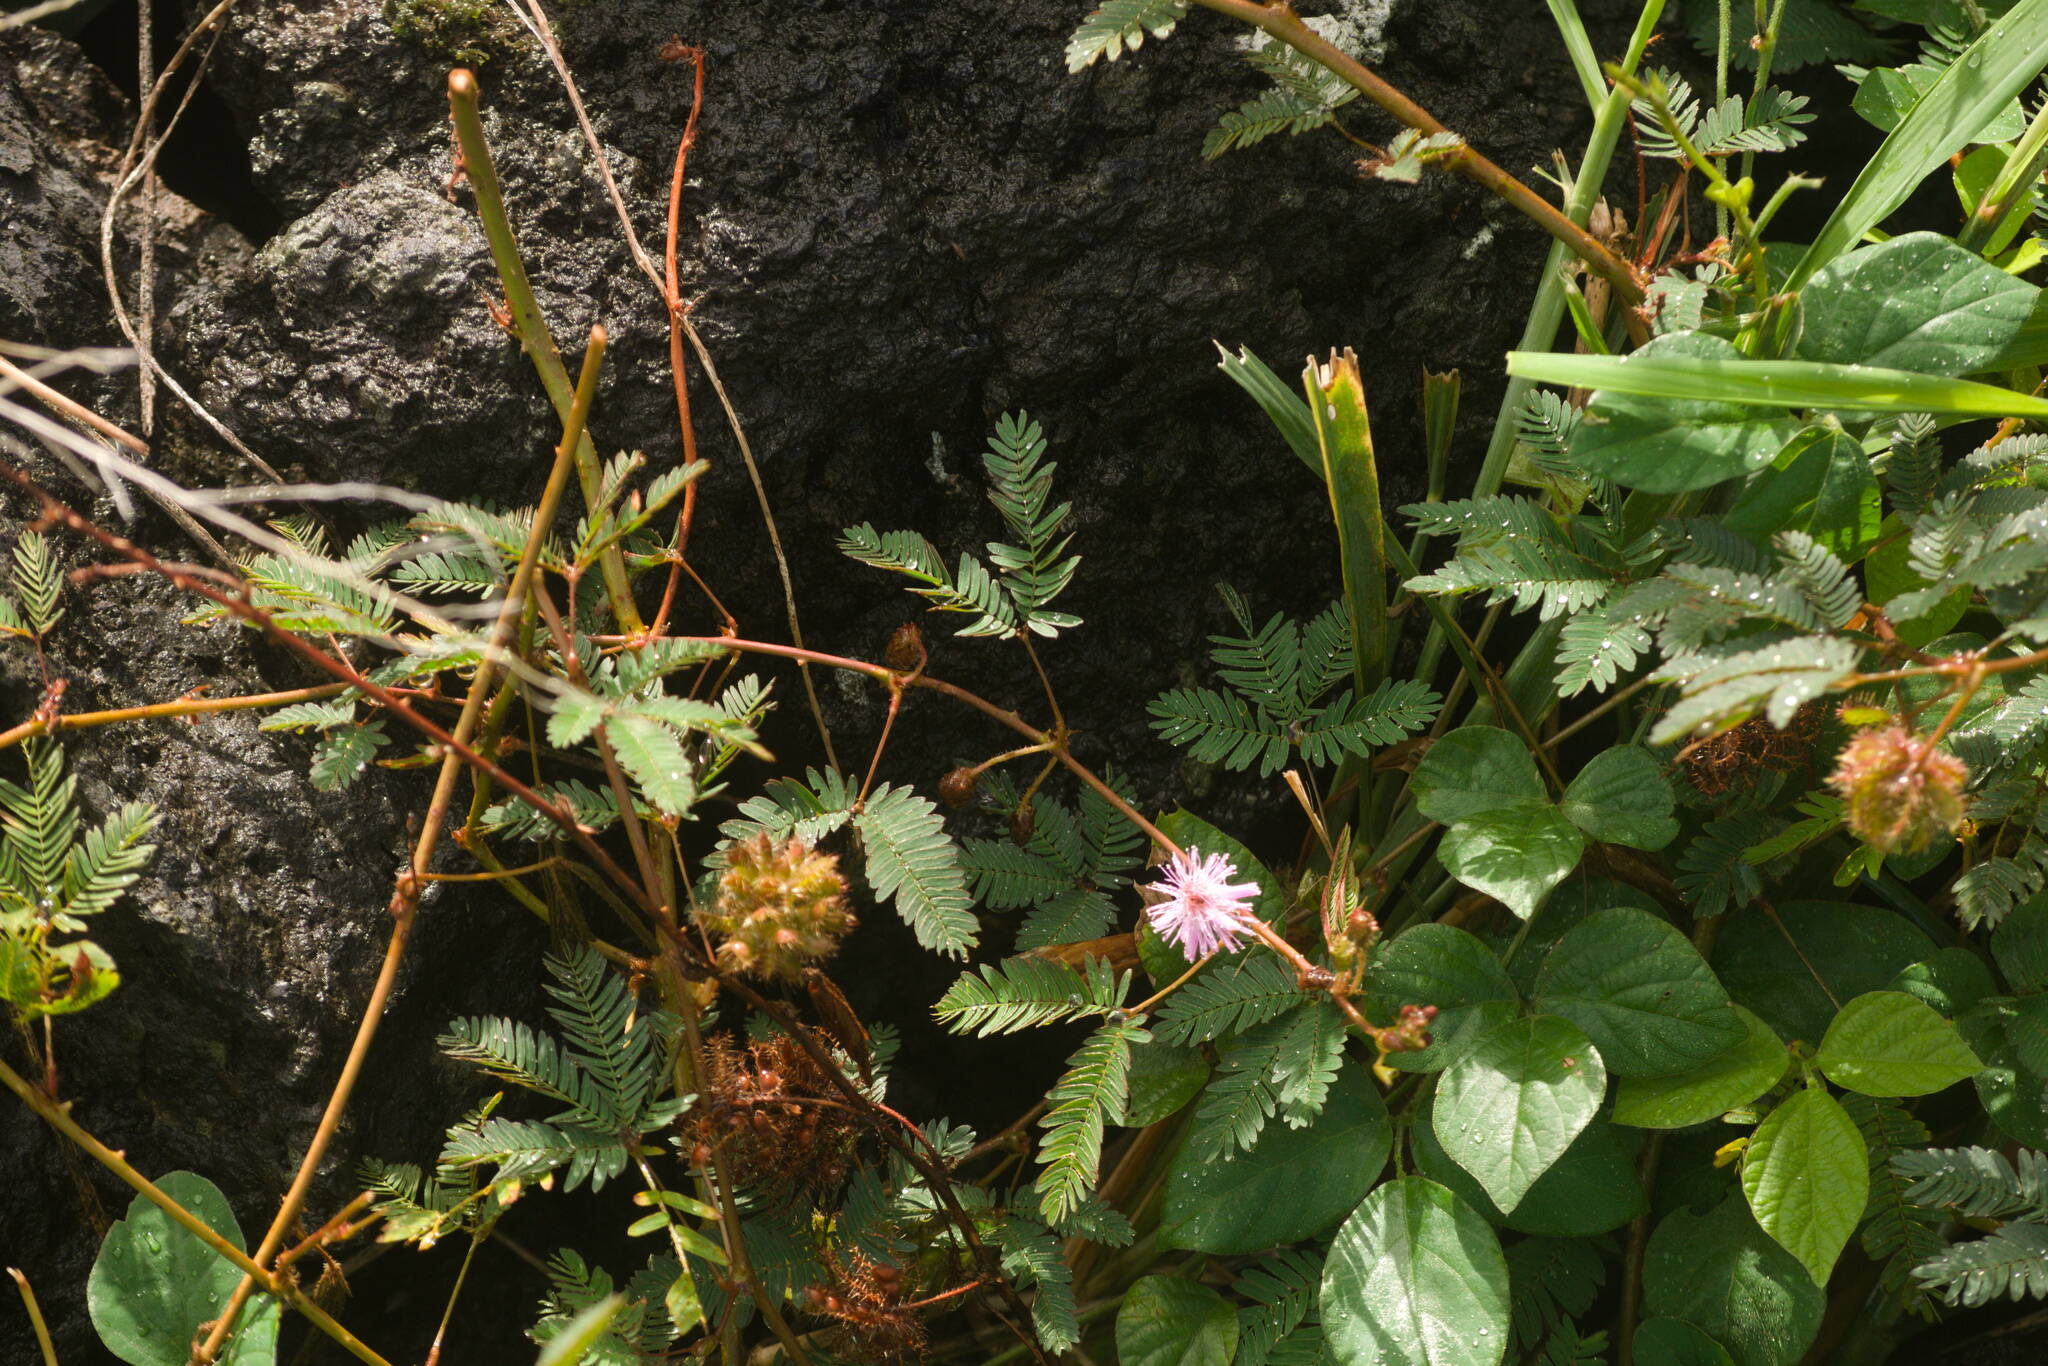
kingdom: Plantae
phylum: Tracheophyta
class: Magnoliopsida
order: Fabales
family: Fabaceae
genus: Mimosa
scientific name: Mimosa pudica
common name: Sensitive plant
